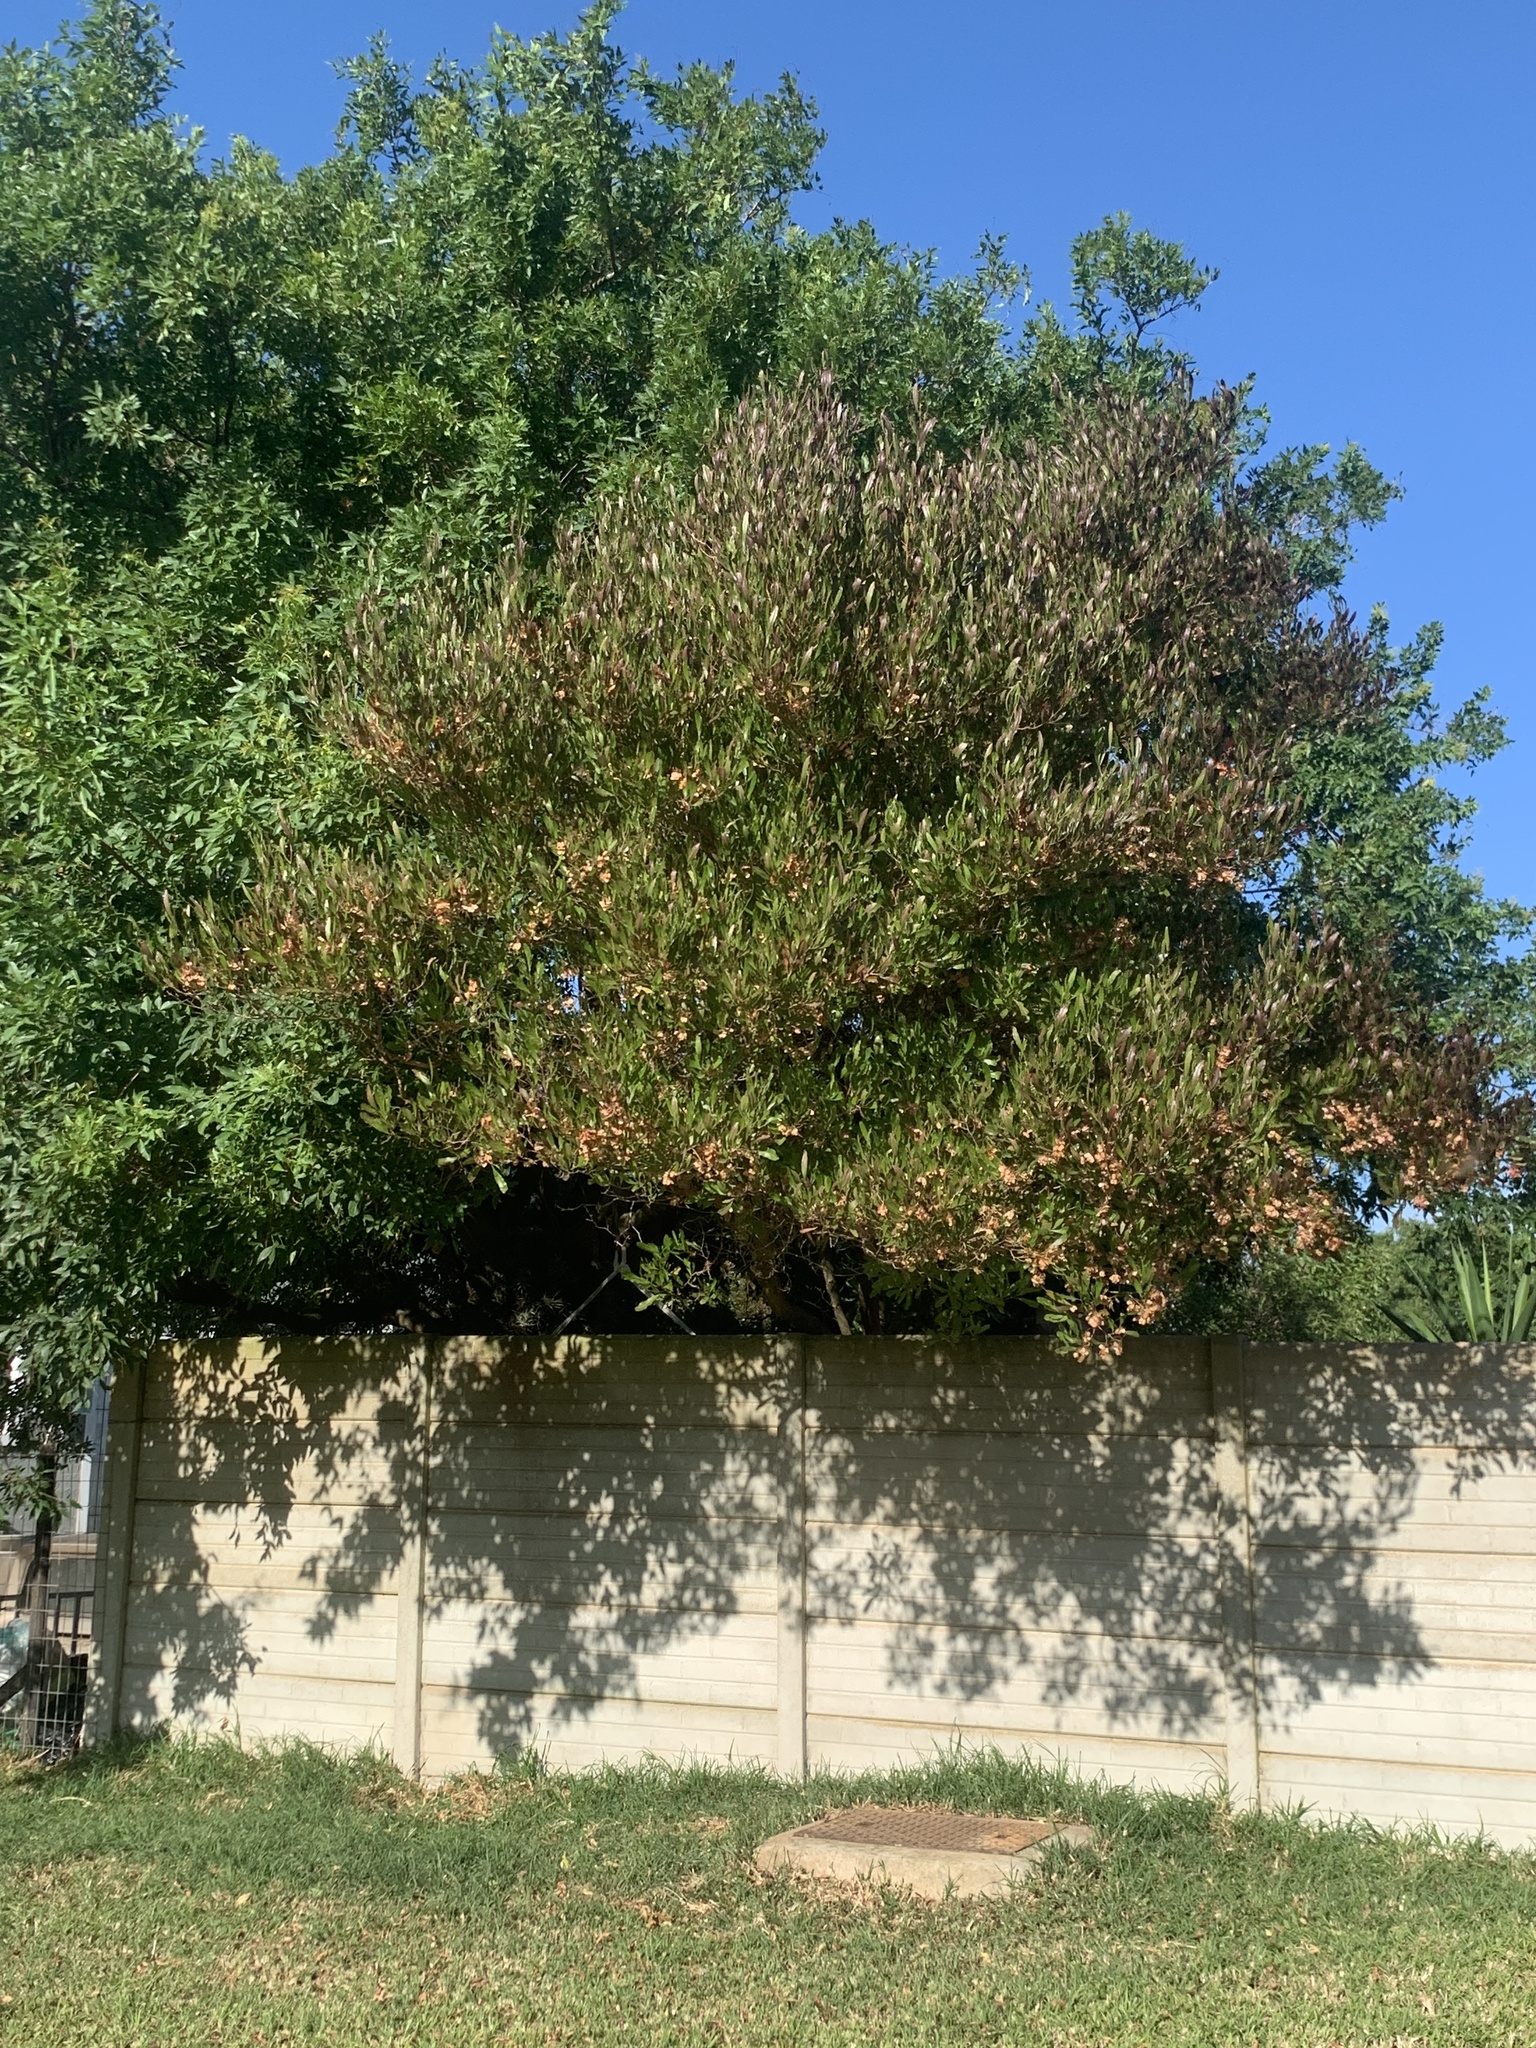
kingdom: Plantae
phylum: Tracheophyta
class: Magnoliopsida
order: Sapindales
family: Sapindaceae
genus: Dodonaea
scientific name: Dodonaea viscosa
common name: Hopbush
